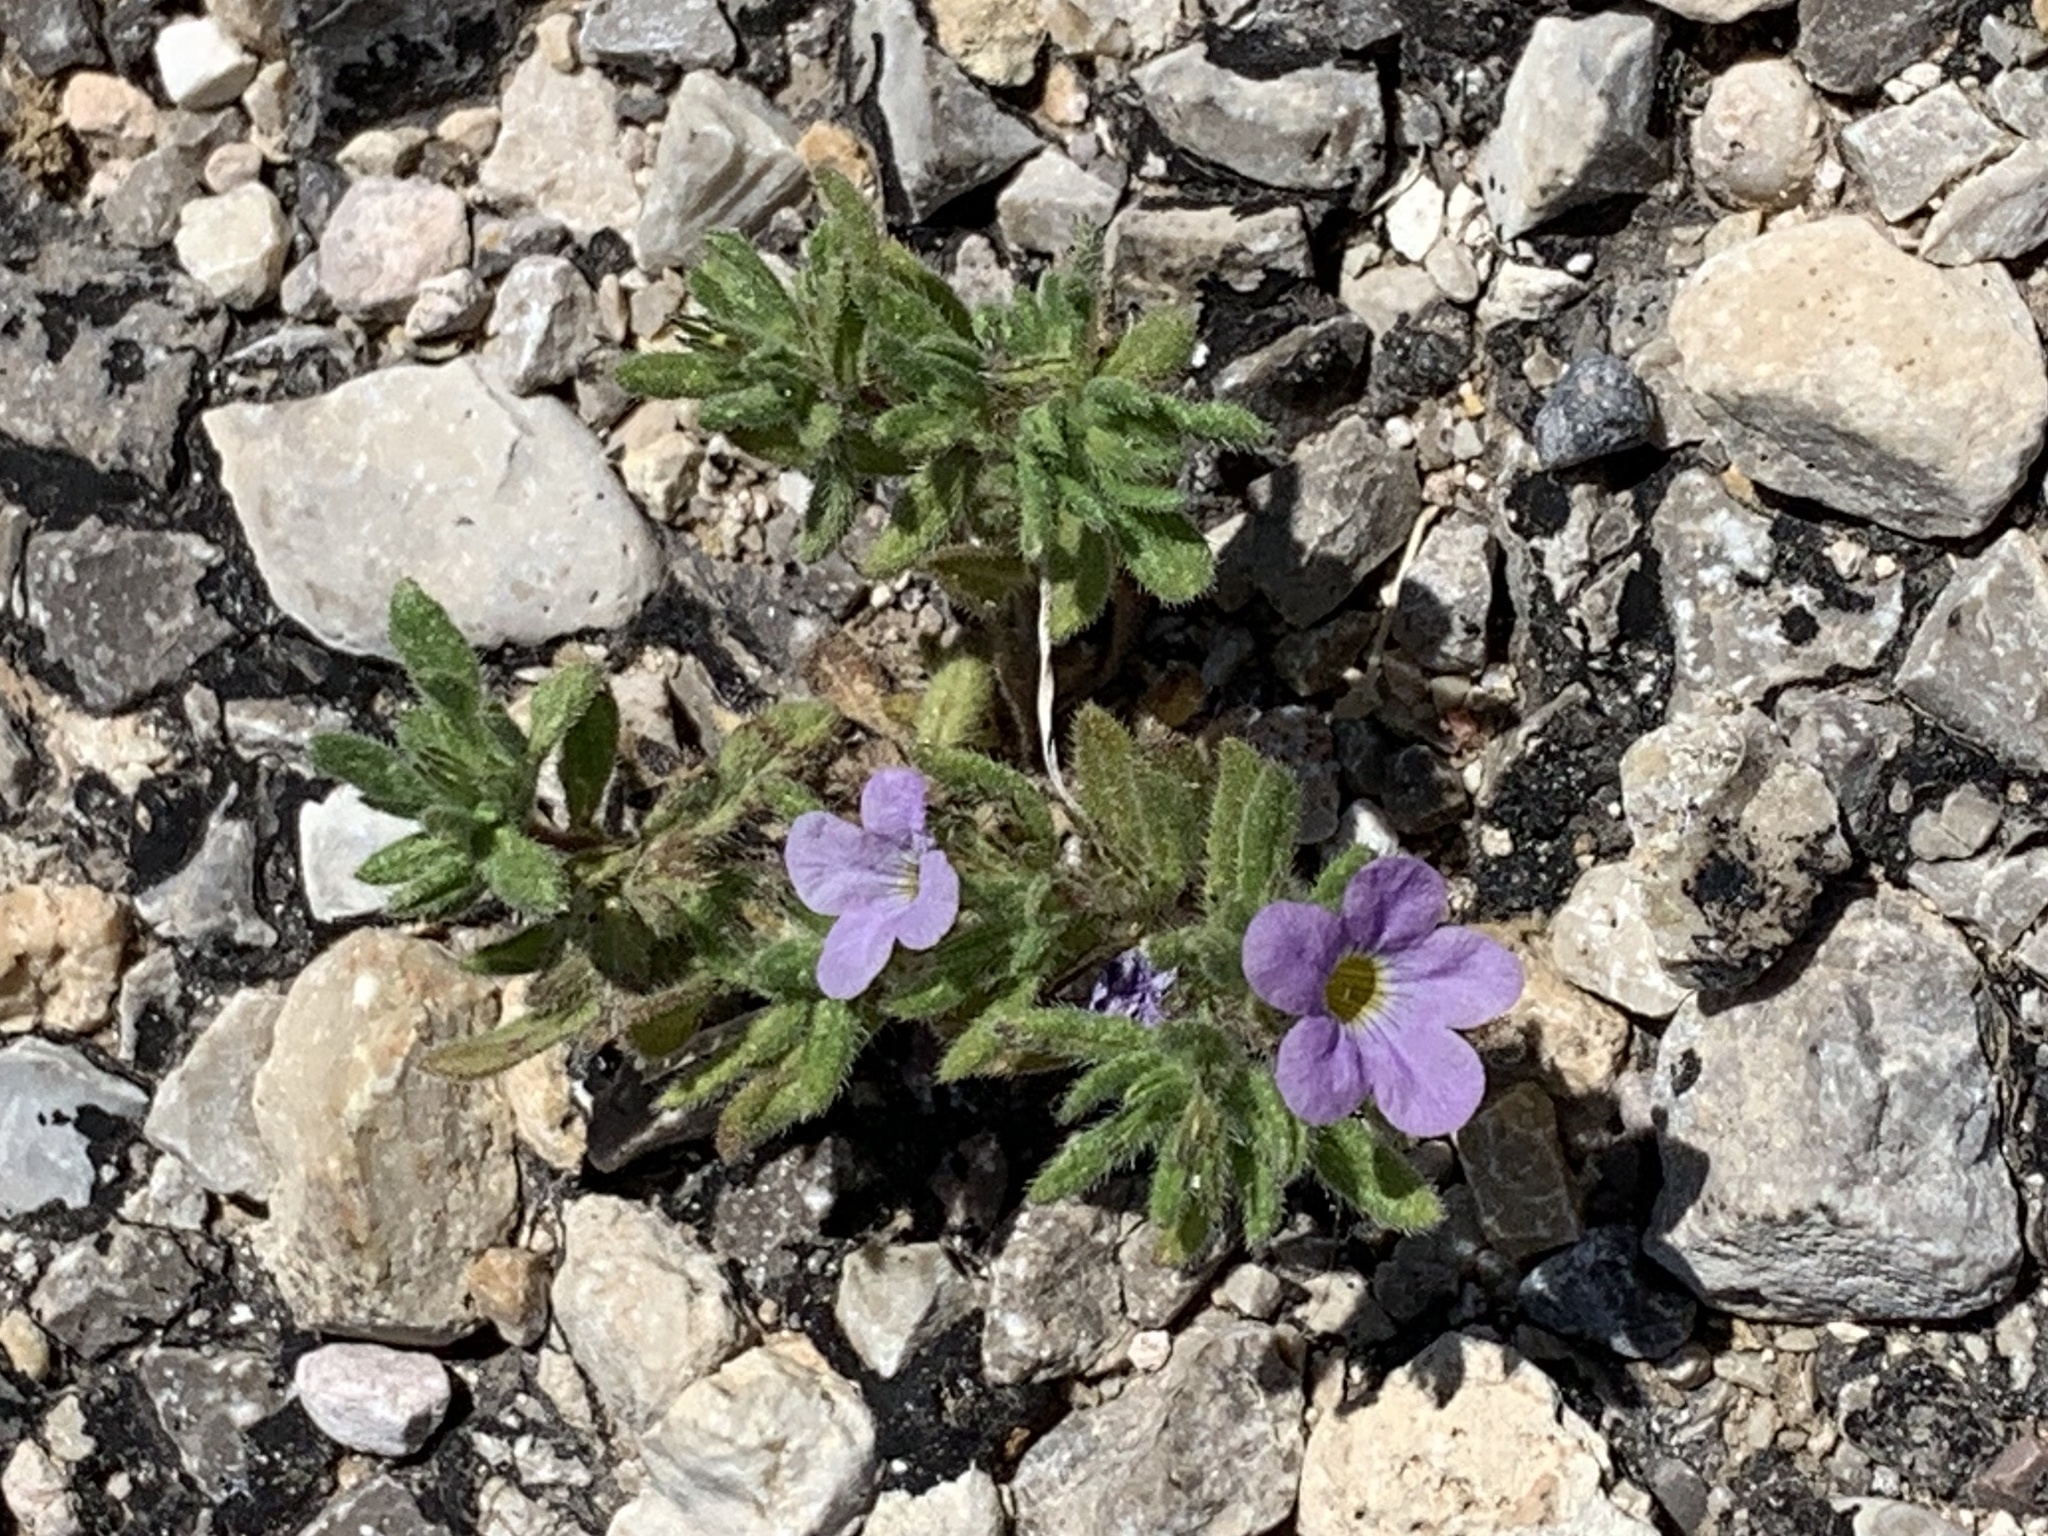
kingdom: Plantae
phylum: Tracheophyta
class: Magnoliopsida
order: Boraginales
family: Namaceae
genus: Nama
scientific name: Nama hispida
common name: Bristly nama
